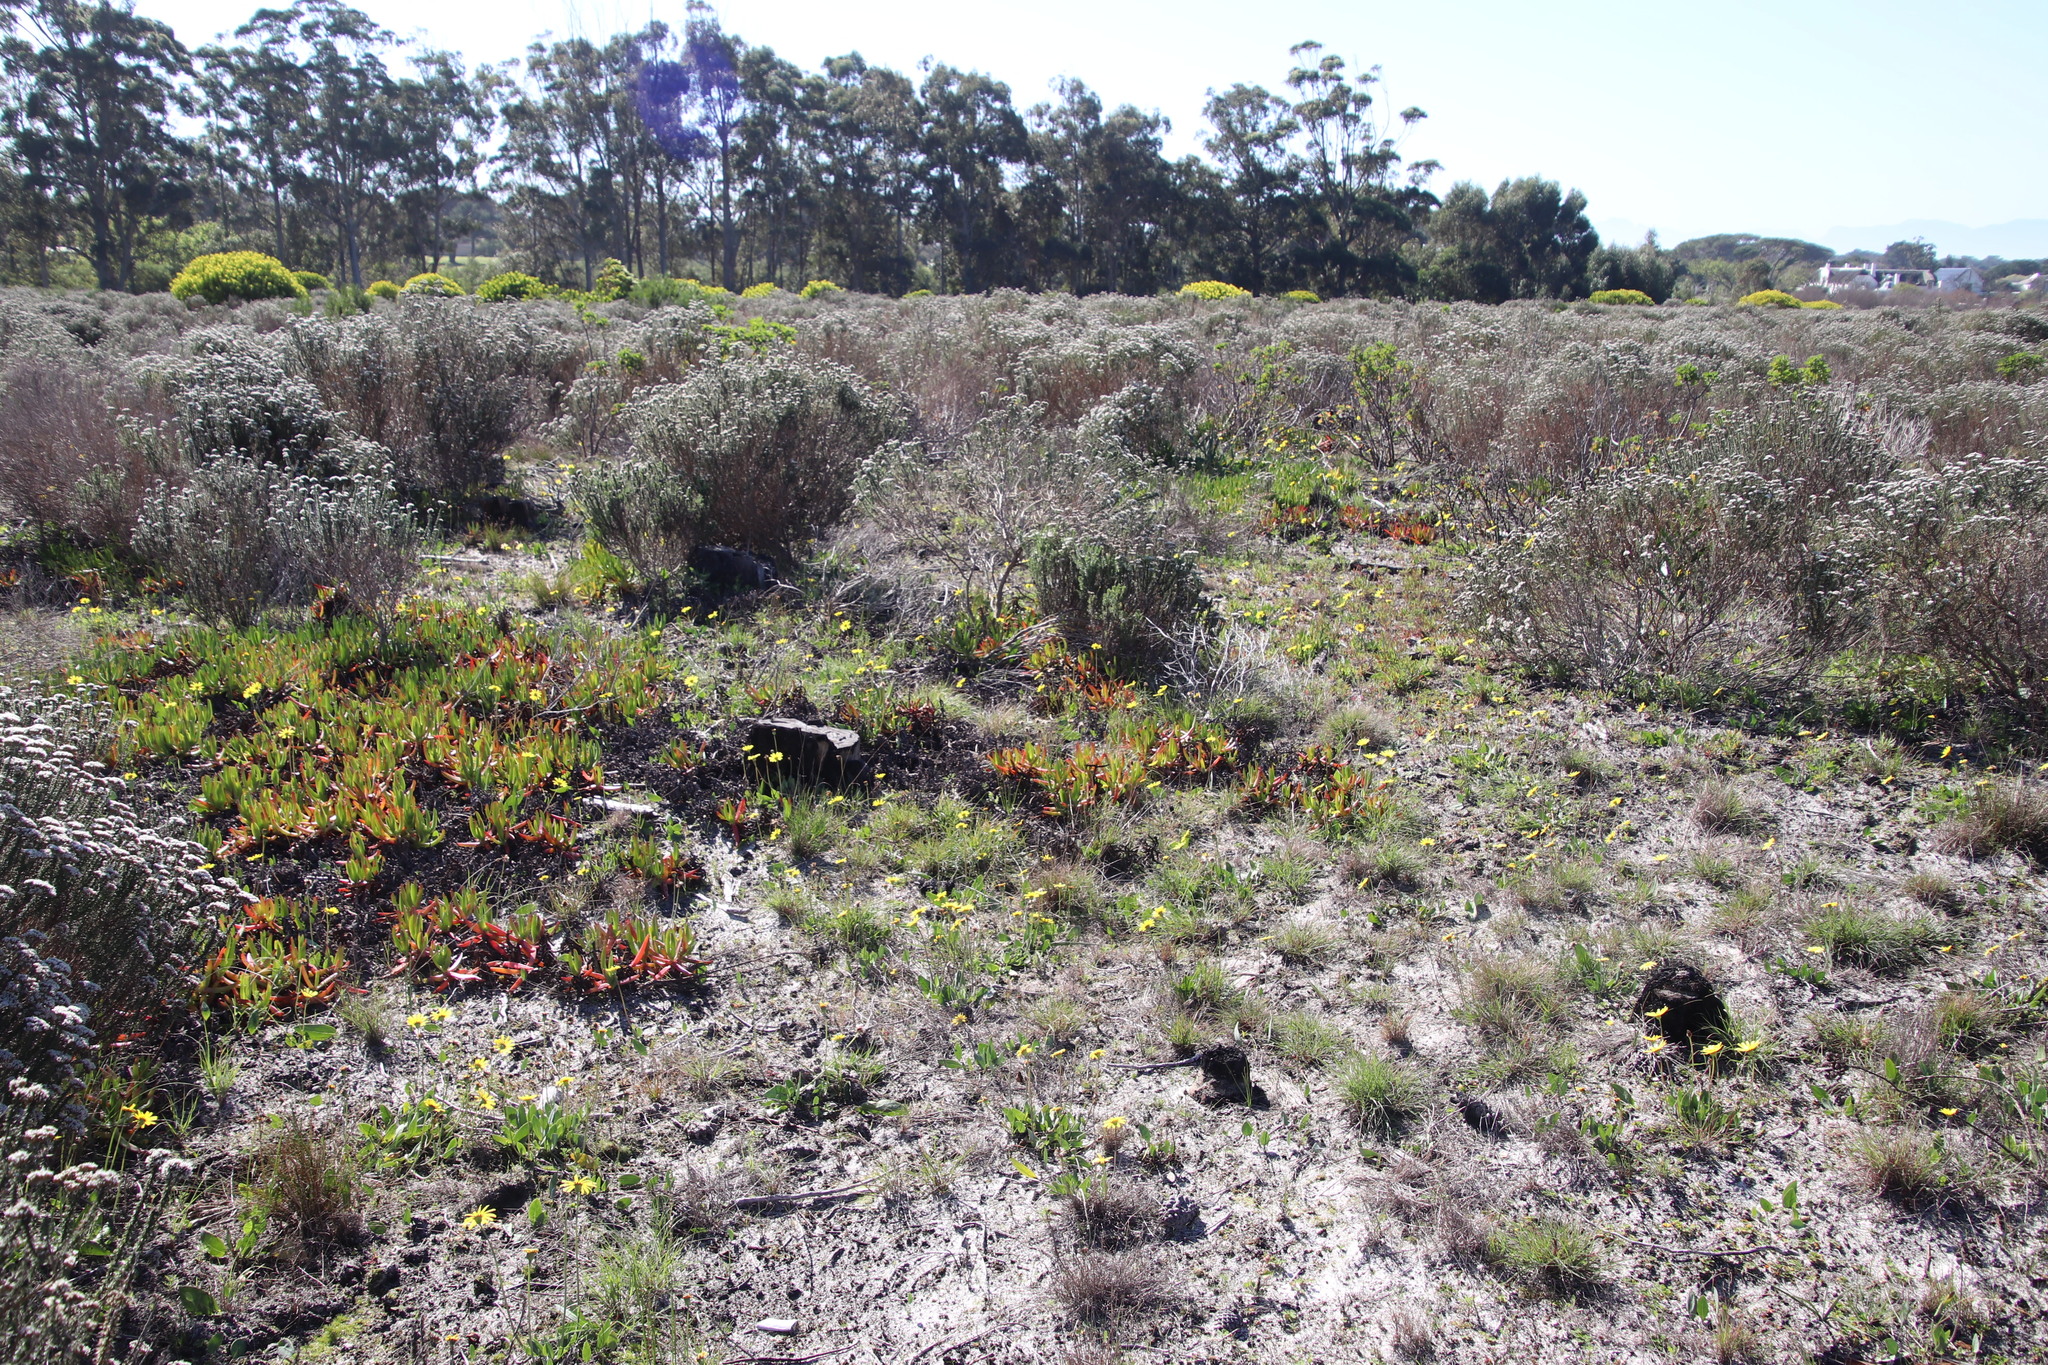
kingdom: Plantae
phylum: Tracheophyta
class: Magnoliopsida
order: Asterales
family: Asteraceae
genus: Othonna
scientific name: Othonna bulbosa
